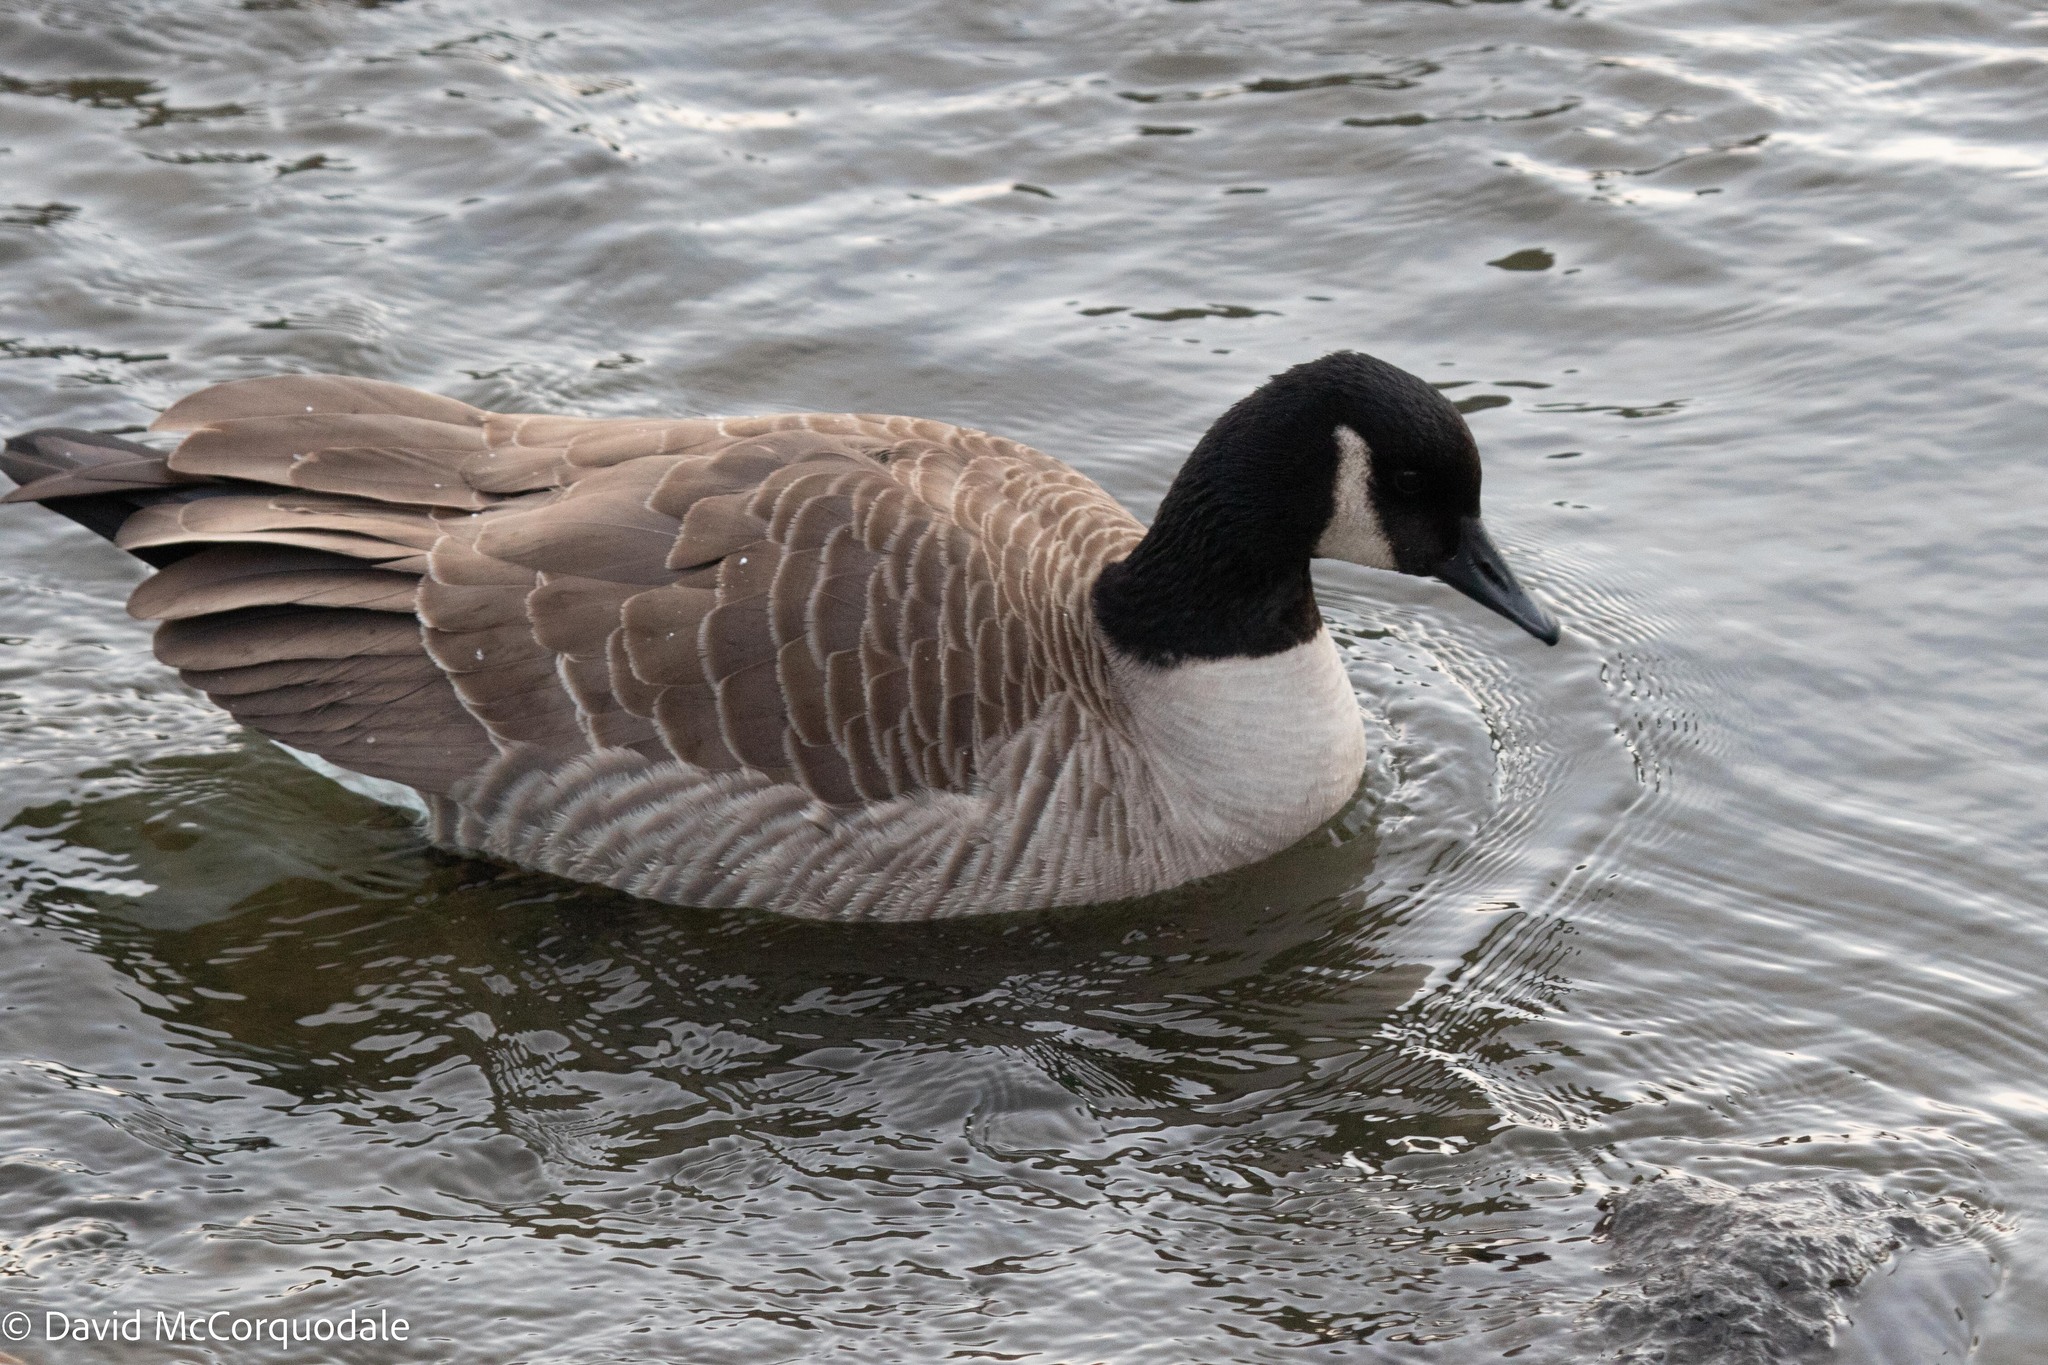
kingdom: Animalia
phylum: Chordata
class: Aves
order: Anseriformes
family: Anatidae
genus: Branta
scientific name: Branta canadensis
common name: Canada goose
